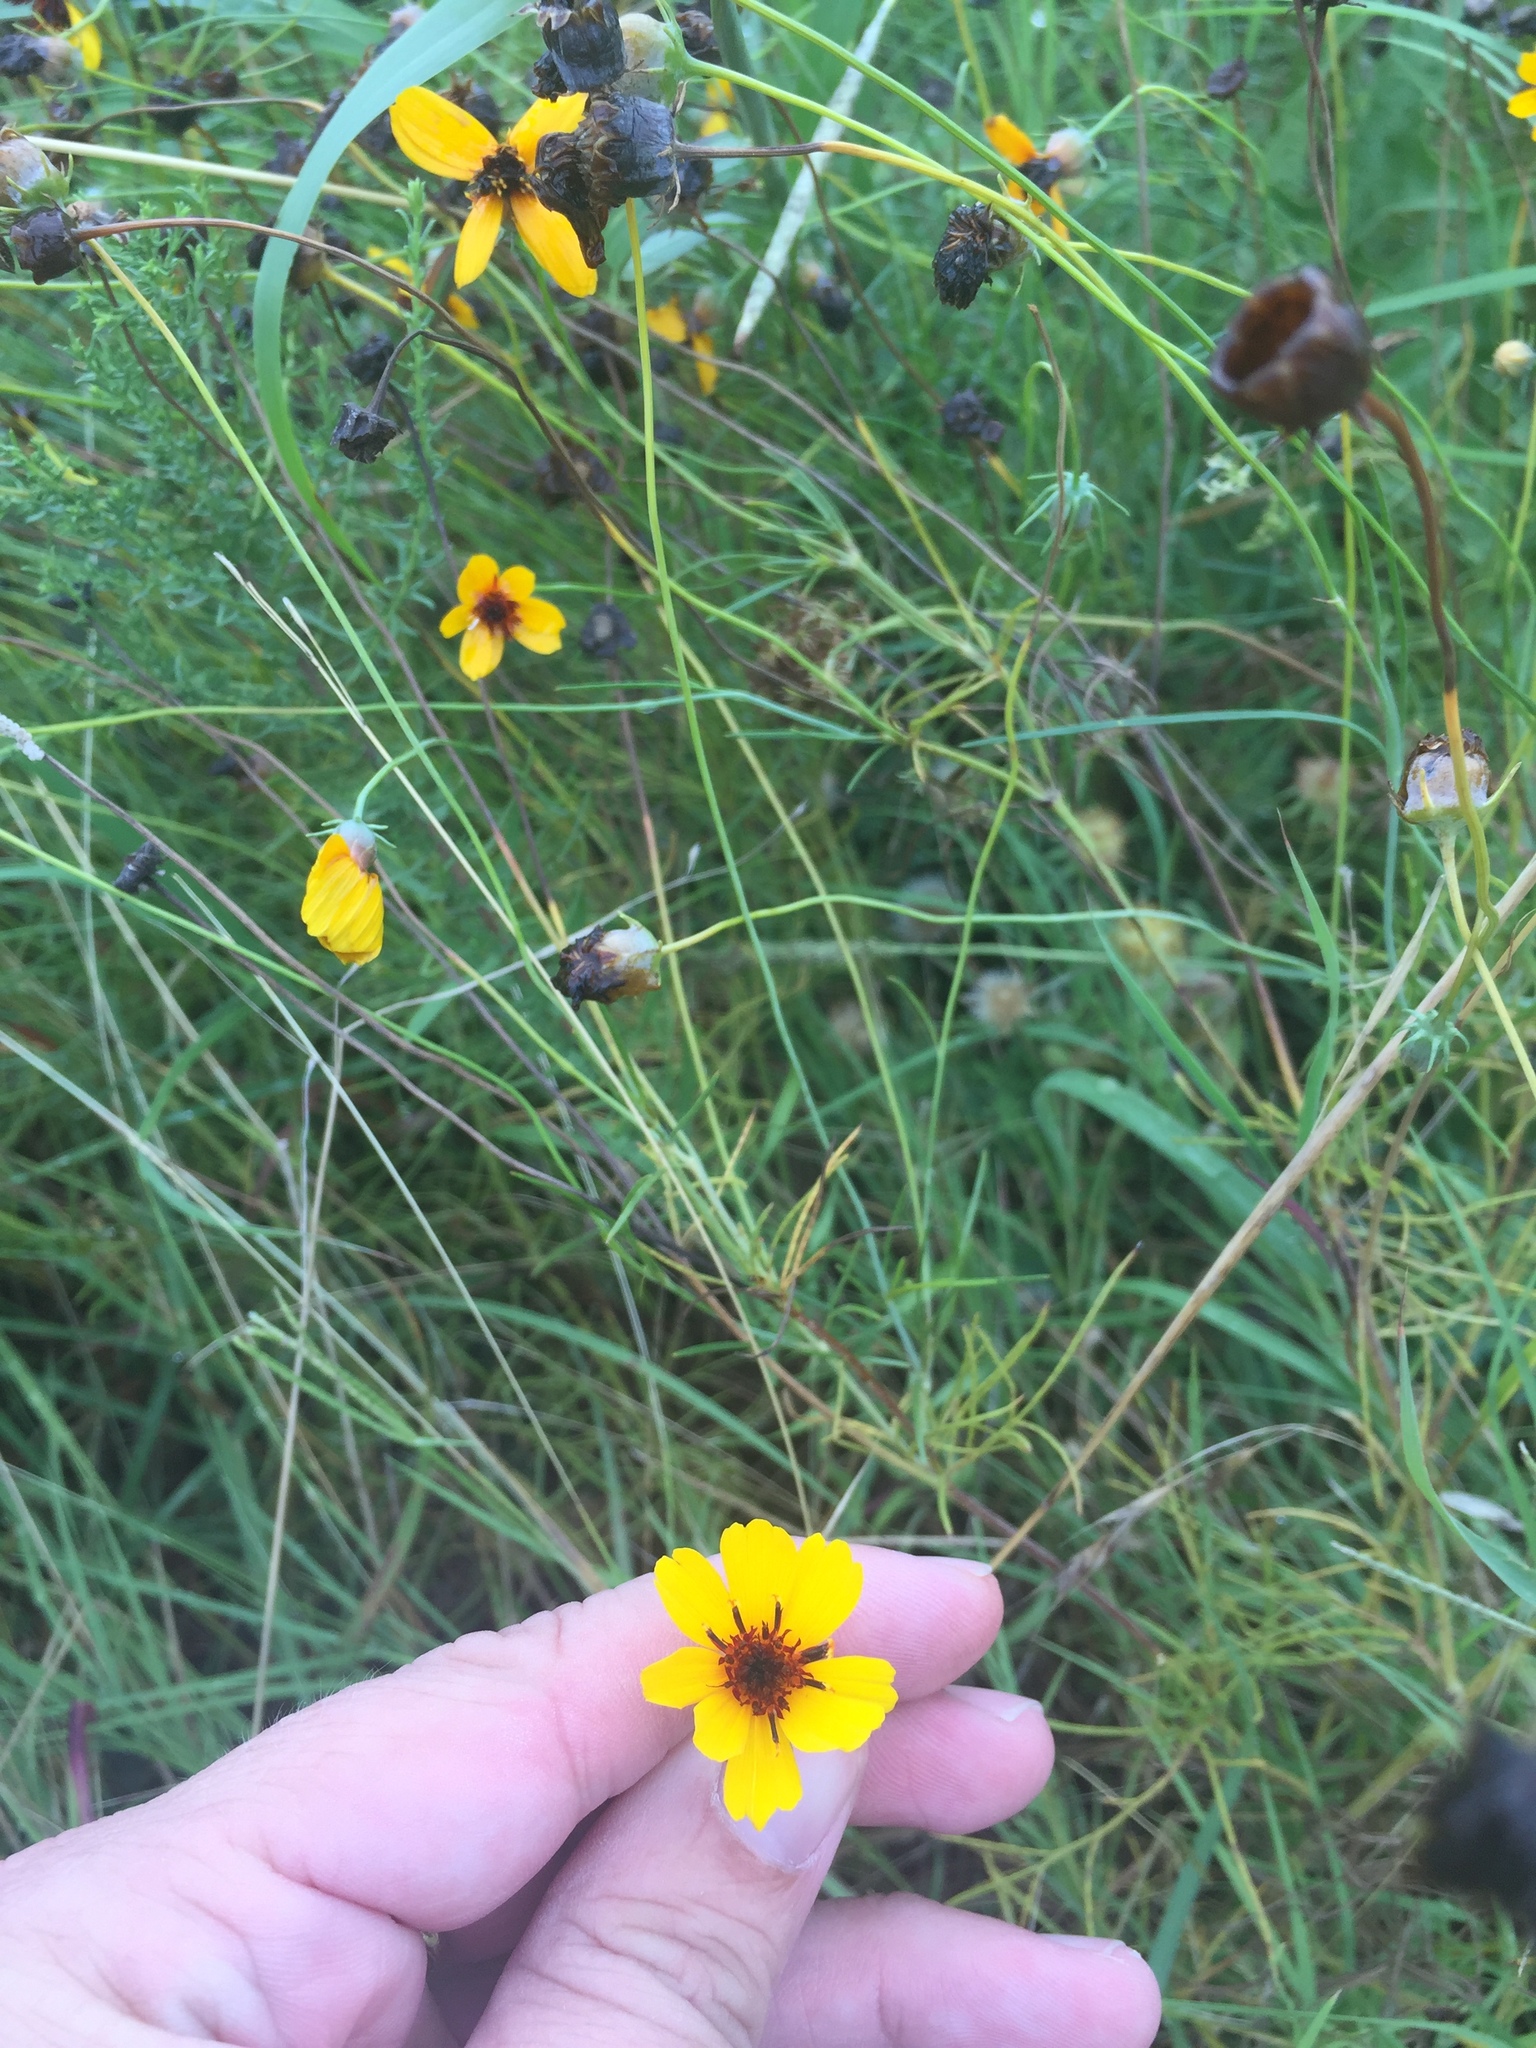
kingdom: Plantae
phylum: Tracheophyta
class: Magnoliopsida
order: Asterales
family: Asteraceae
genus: Thelesperma
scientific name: Thelesperma filifolium
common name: Stiff greenthread
